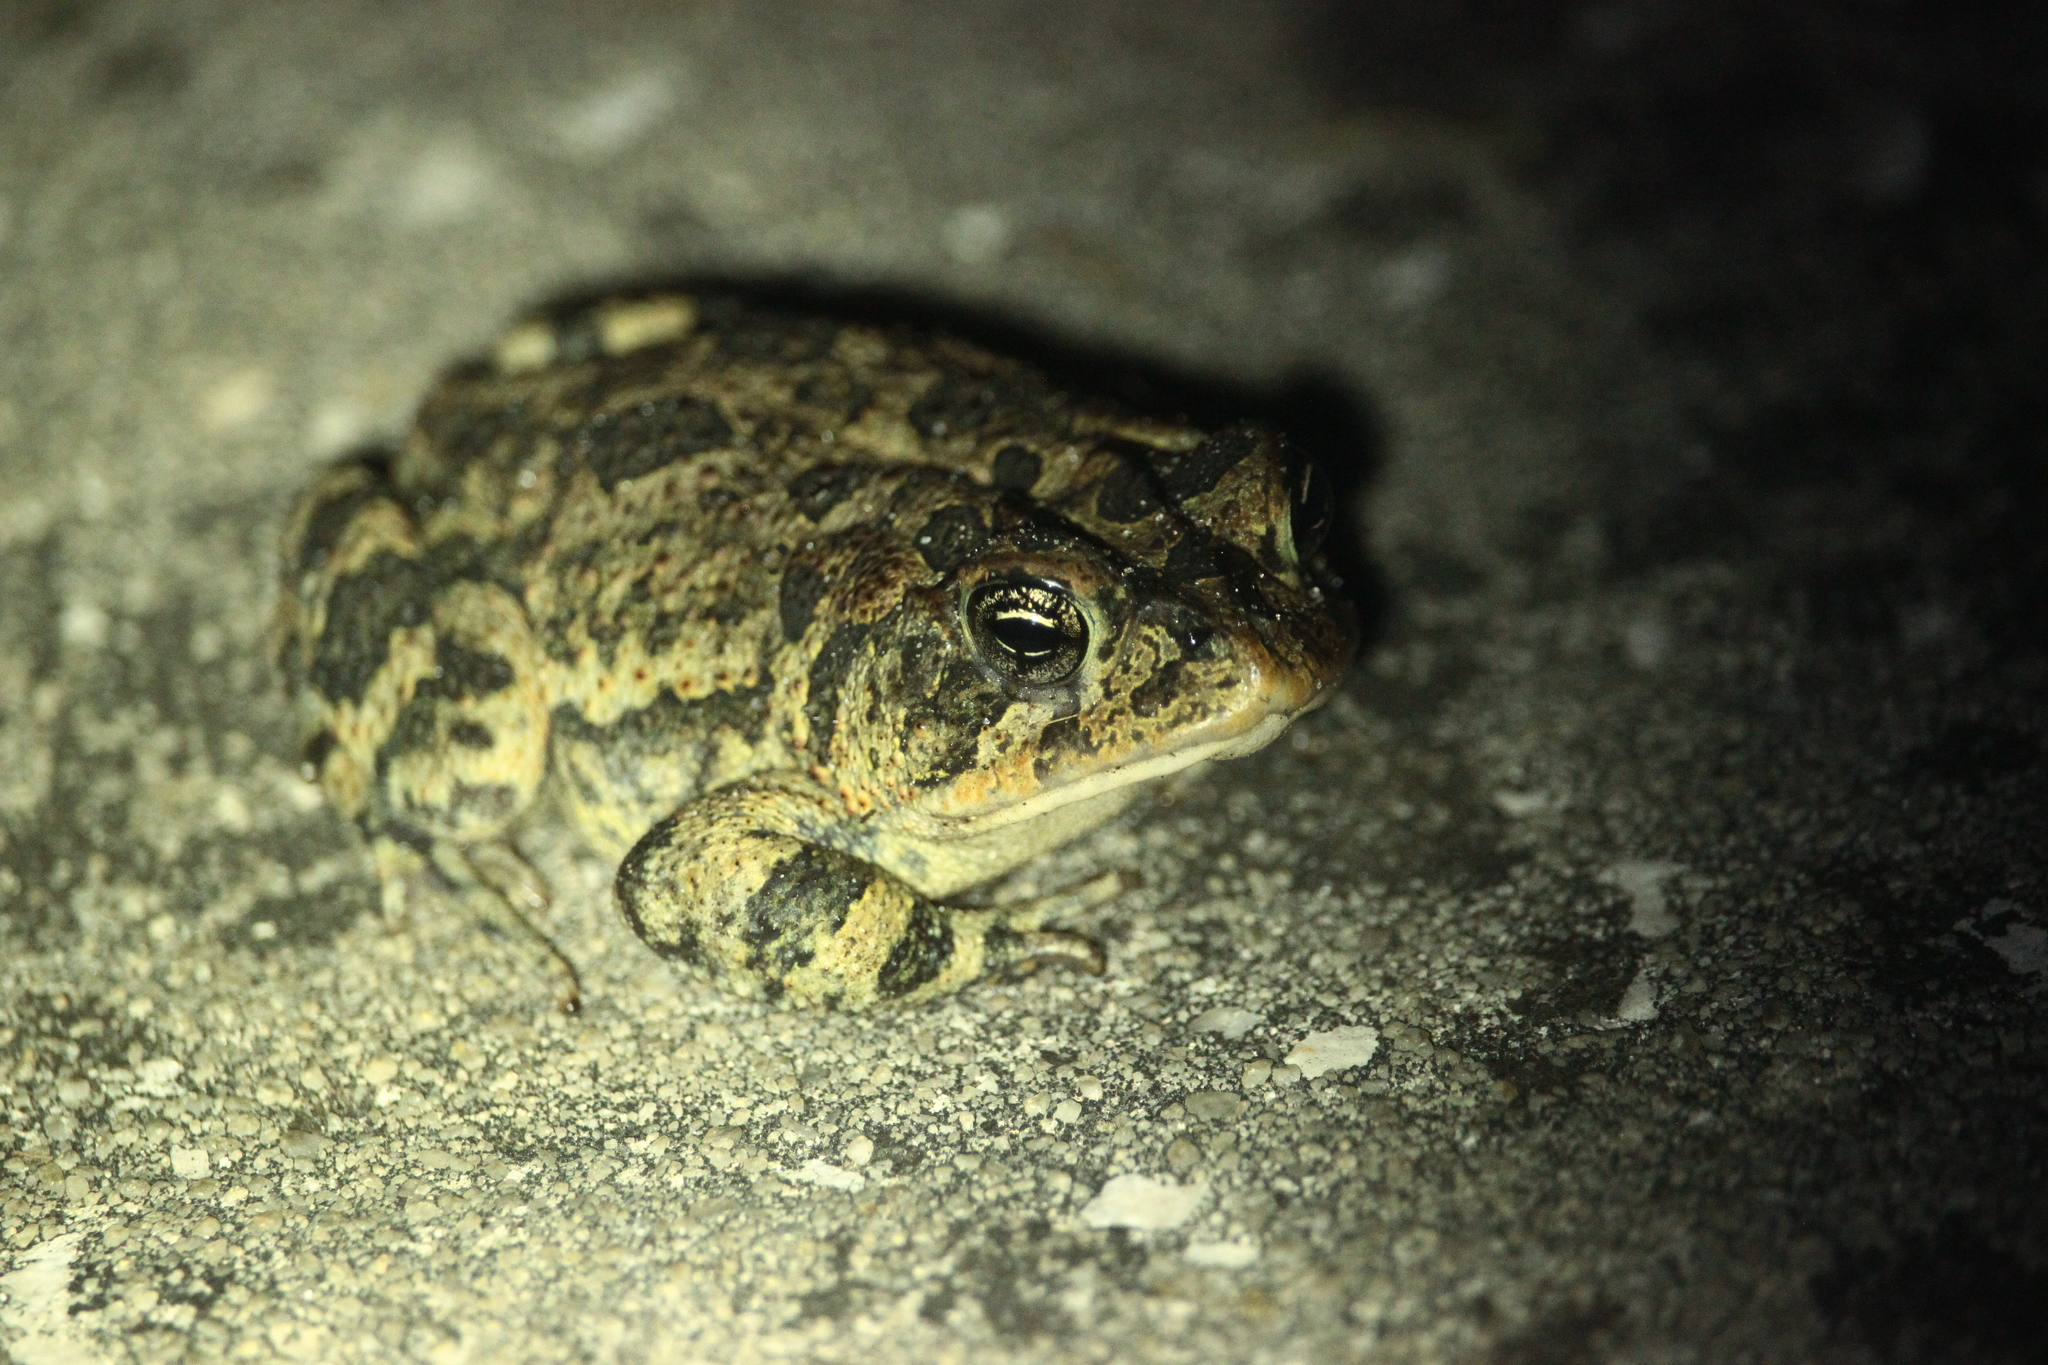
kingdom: Animalia
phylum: Chordata
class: Amphibia
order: Anura
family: Bufonidae
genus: Anaxyrus
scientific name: Anaxyrus terrestris
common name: Southern toad
